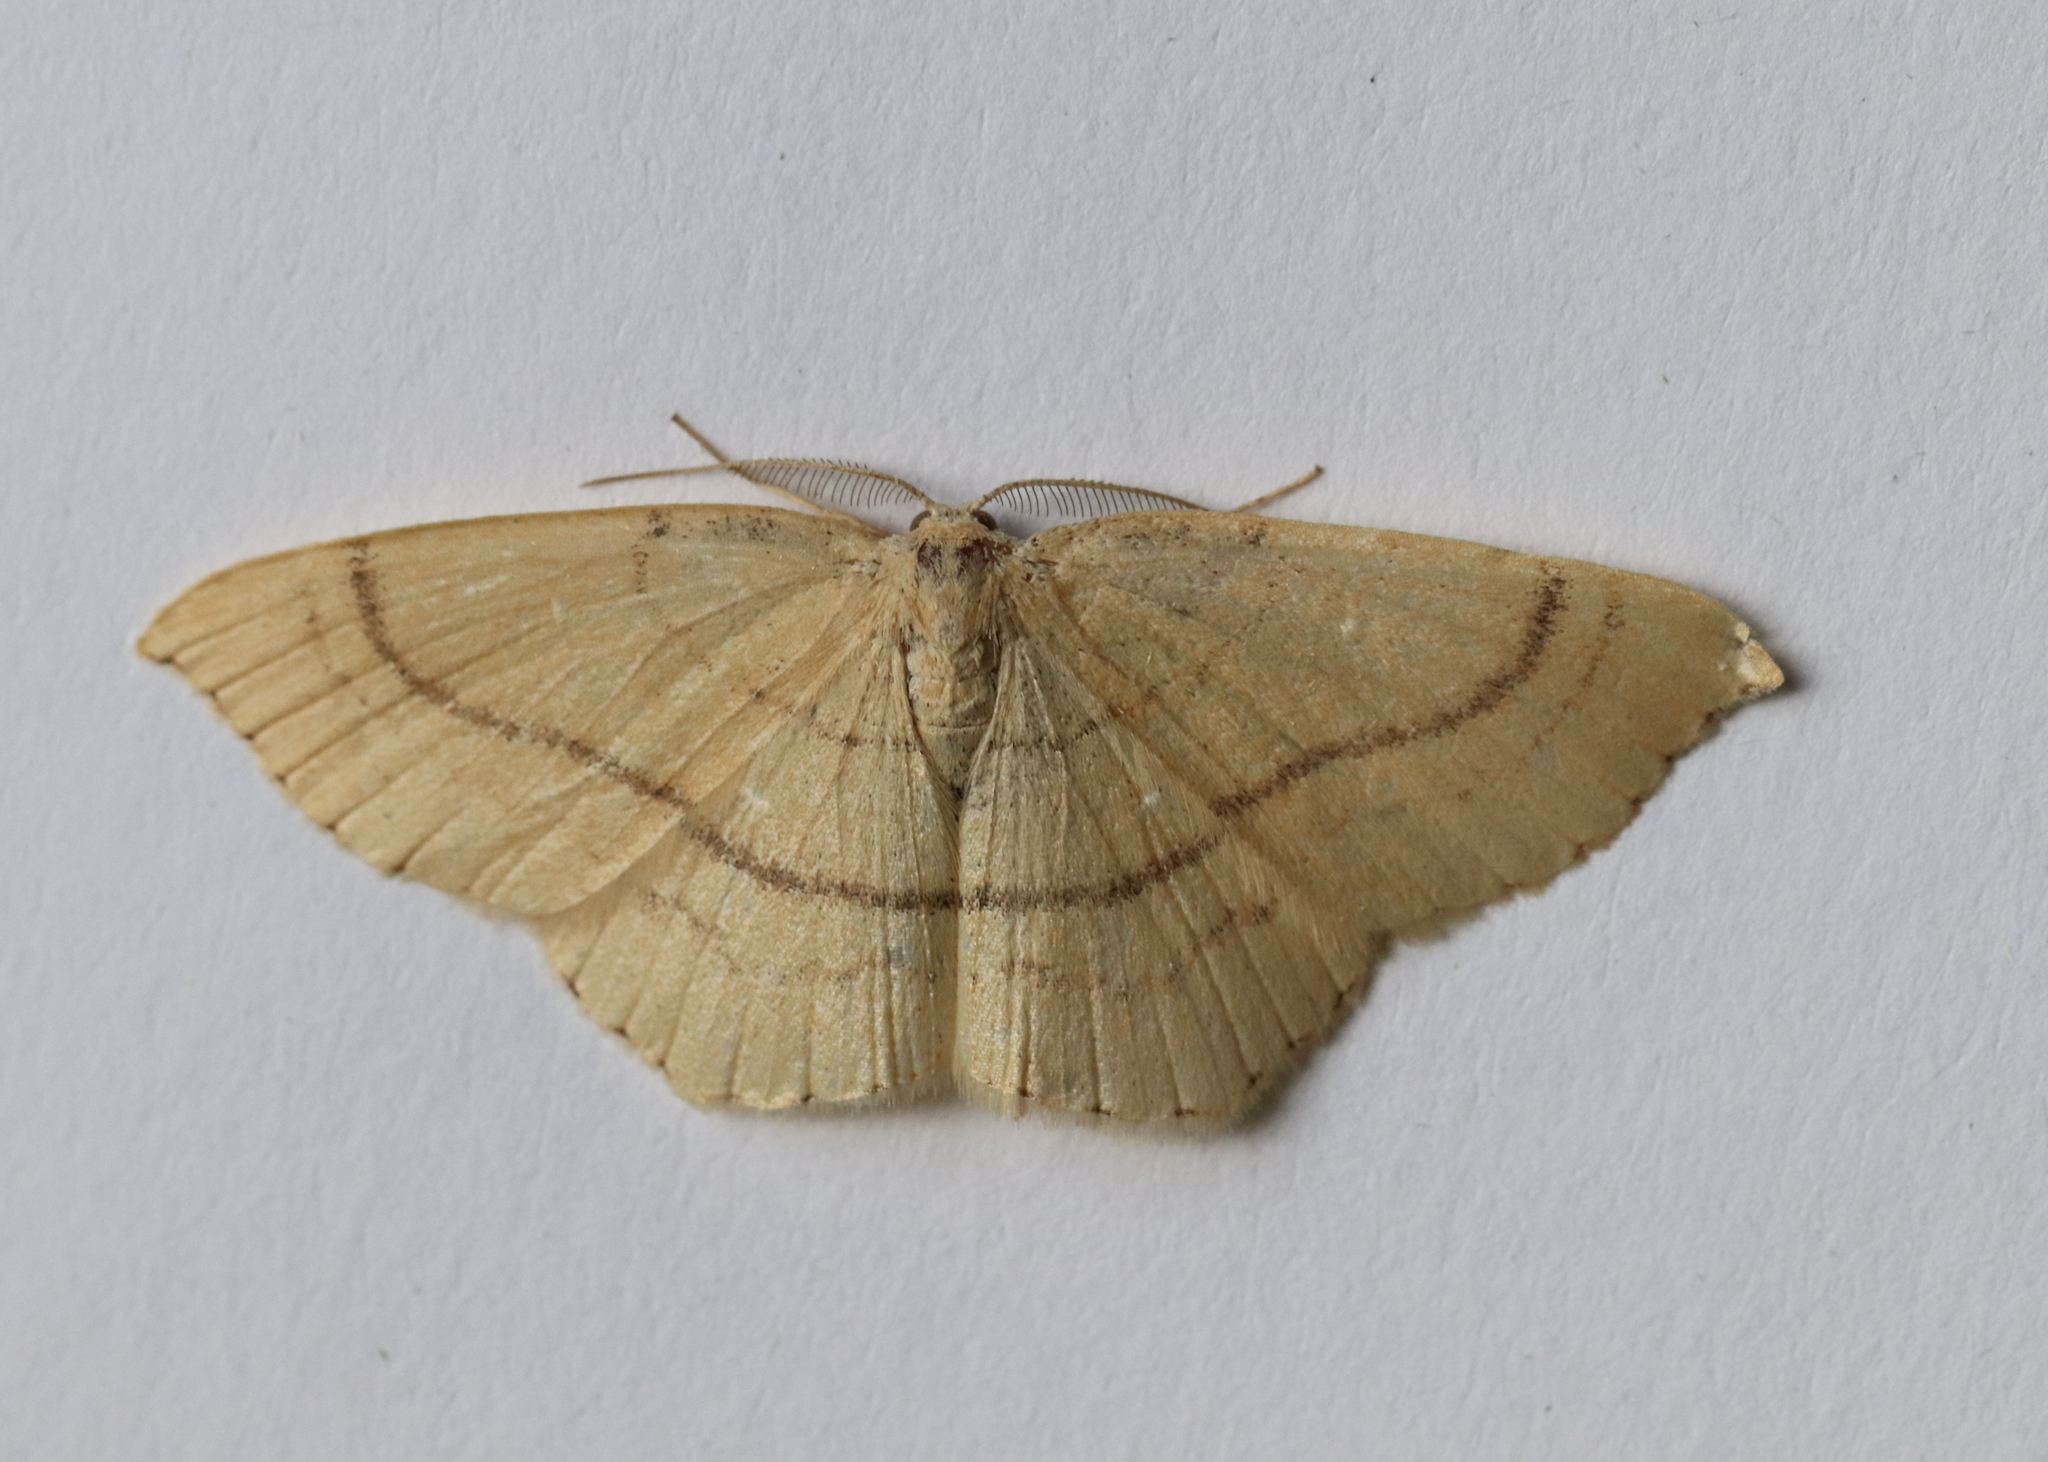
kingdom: Animalia
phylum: Arthropoda
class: Insecta
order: Lepidoptera
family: Geometridae
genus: Cyclophora
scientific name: Cyclophora linearia
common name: Clay triple-lines
